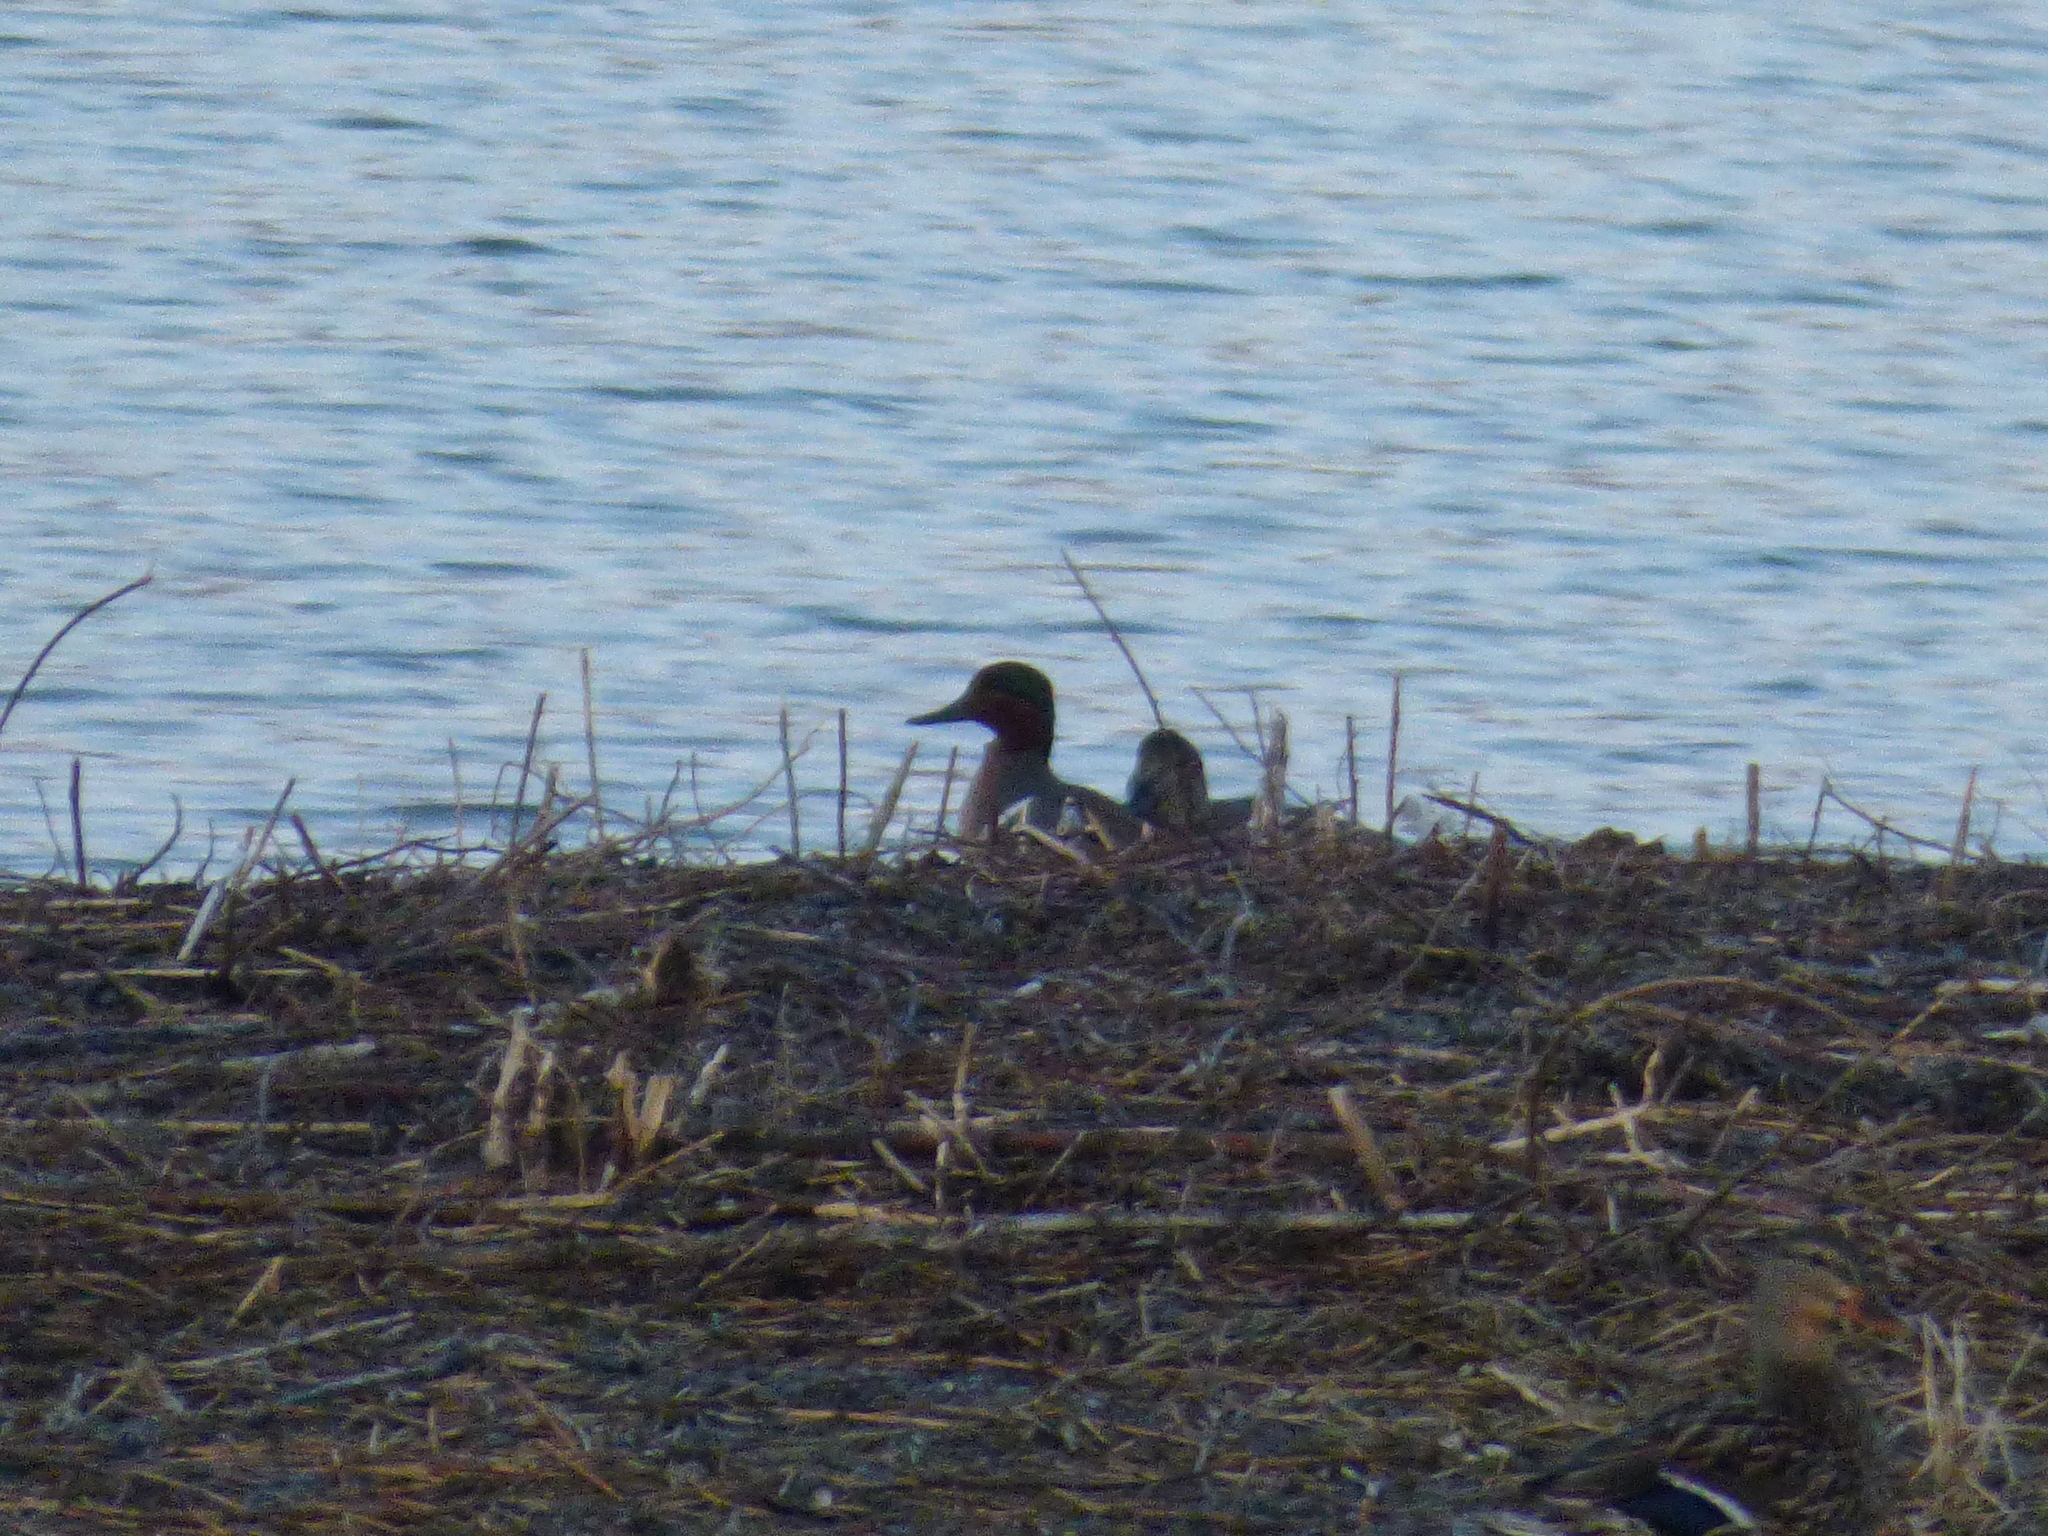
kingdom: Animalia
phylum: Chordata
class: Aves
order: Anseriformes
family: Anatidae
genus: Anas
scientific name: Anas carolinensis
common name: Green-winged teal
